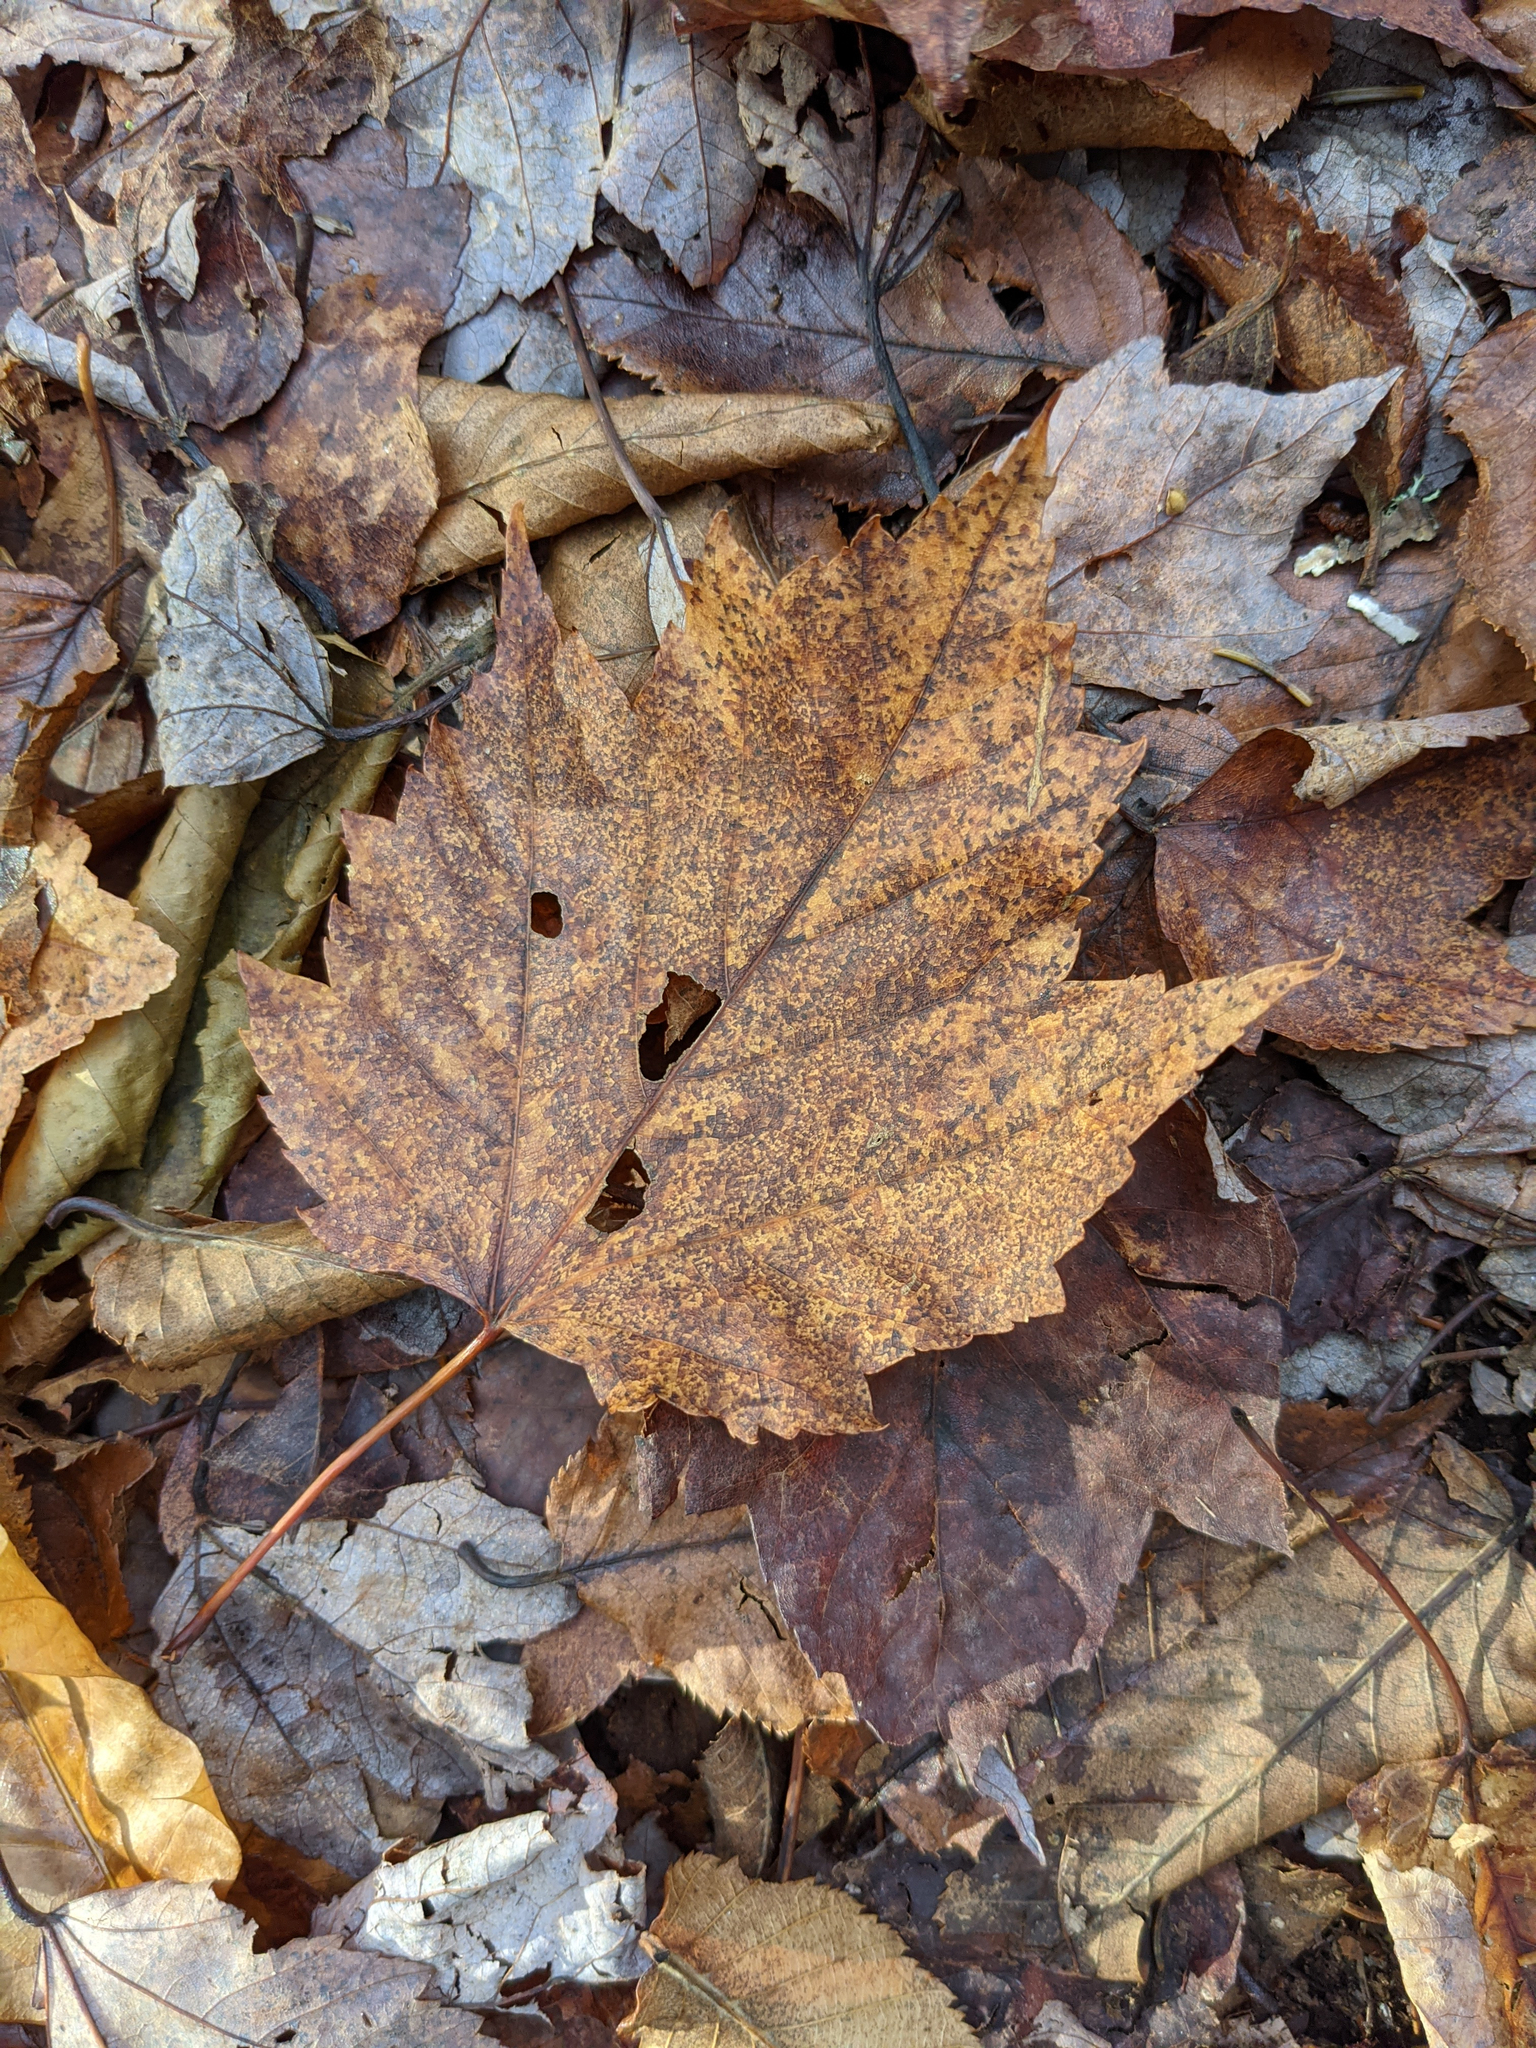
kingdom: Plantae
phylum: Tracheophyta
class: Magnoliopsida
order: Sapindales
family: Sapindaceae
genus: Acer
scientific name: Acer rubrum
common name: Red maple
